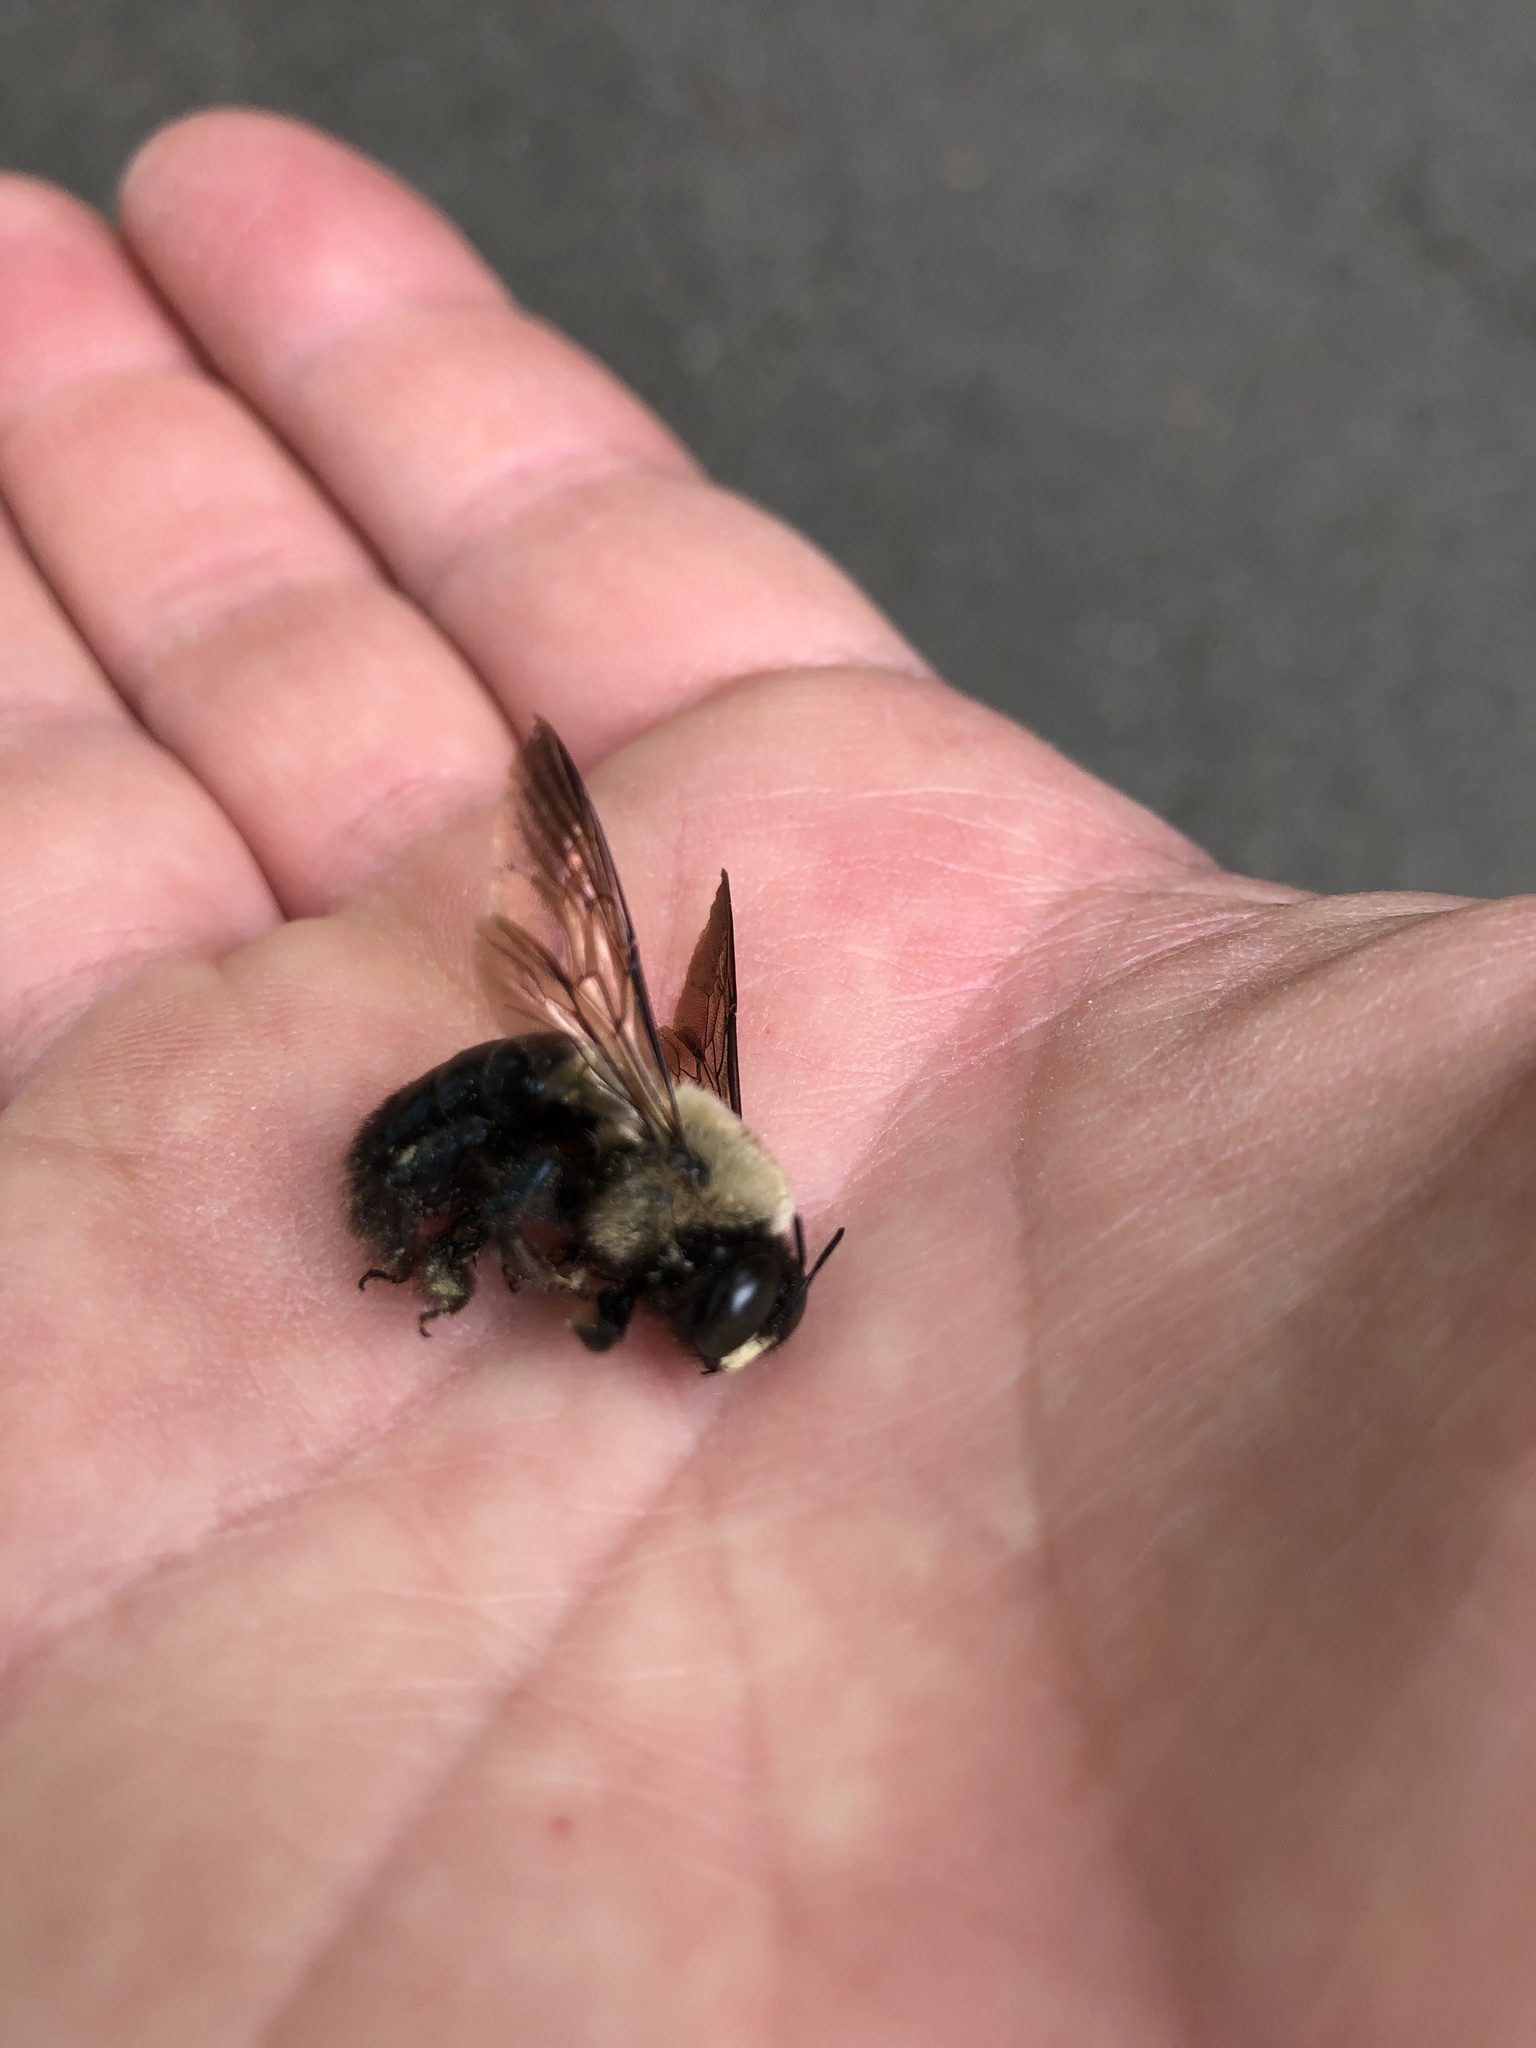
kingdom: Animalia
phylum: Arthropoda
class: Insecta
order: Hymenoptera
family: Apidae
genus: Xylocopa
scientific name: Xylocopa virginica
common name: Carpenter bee
